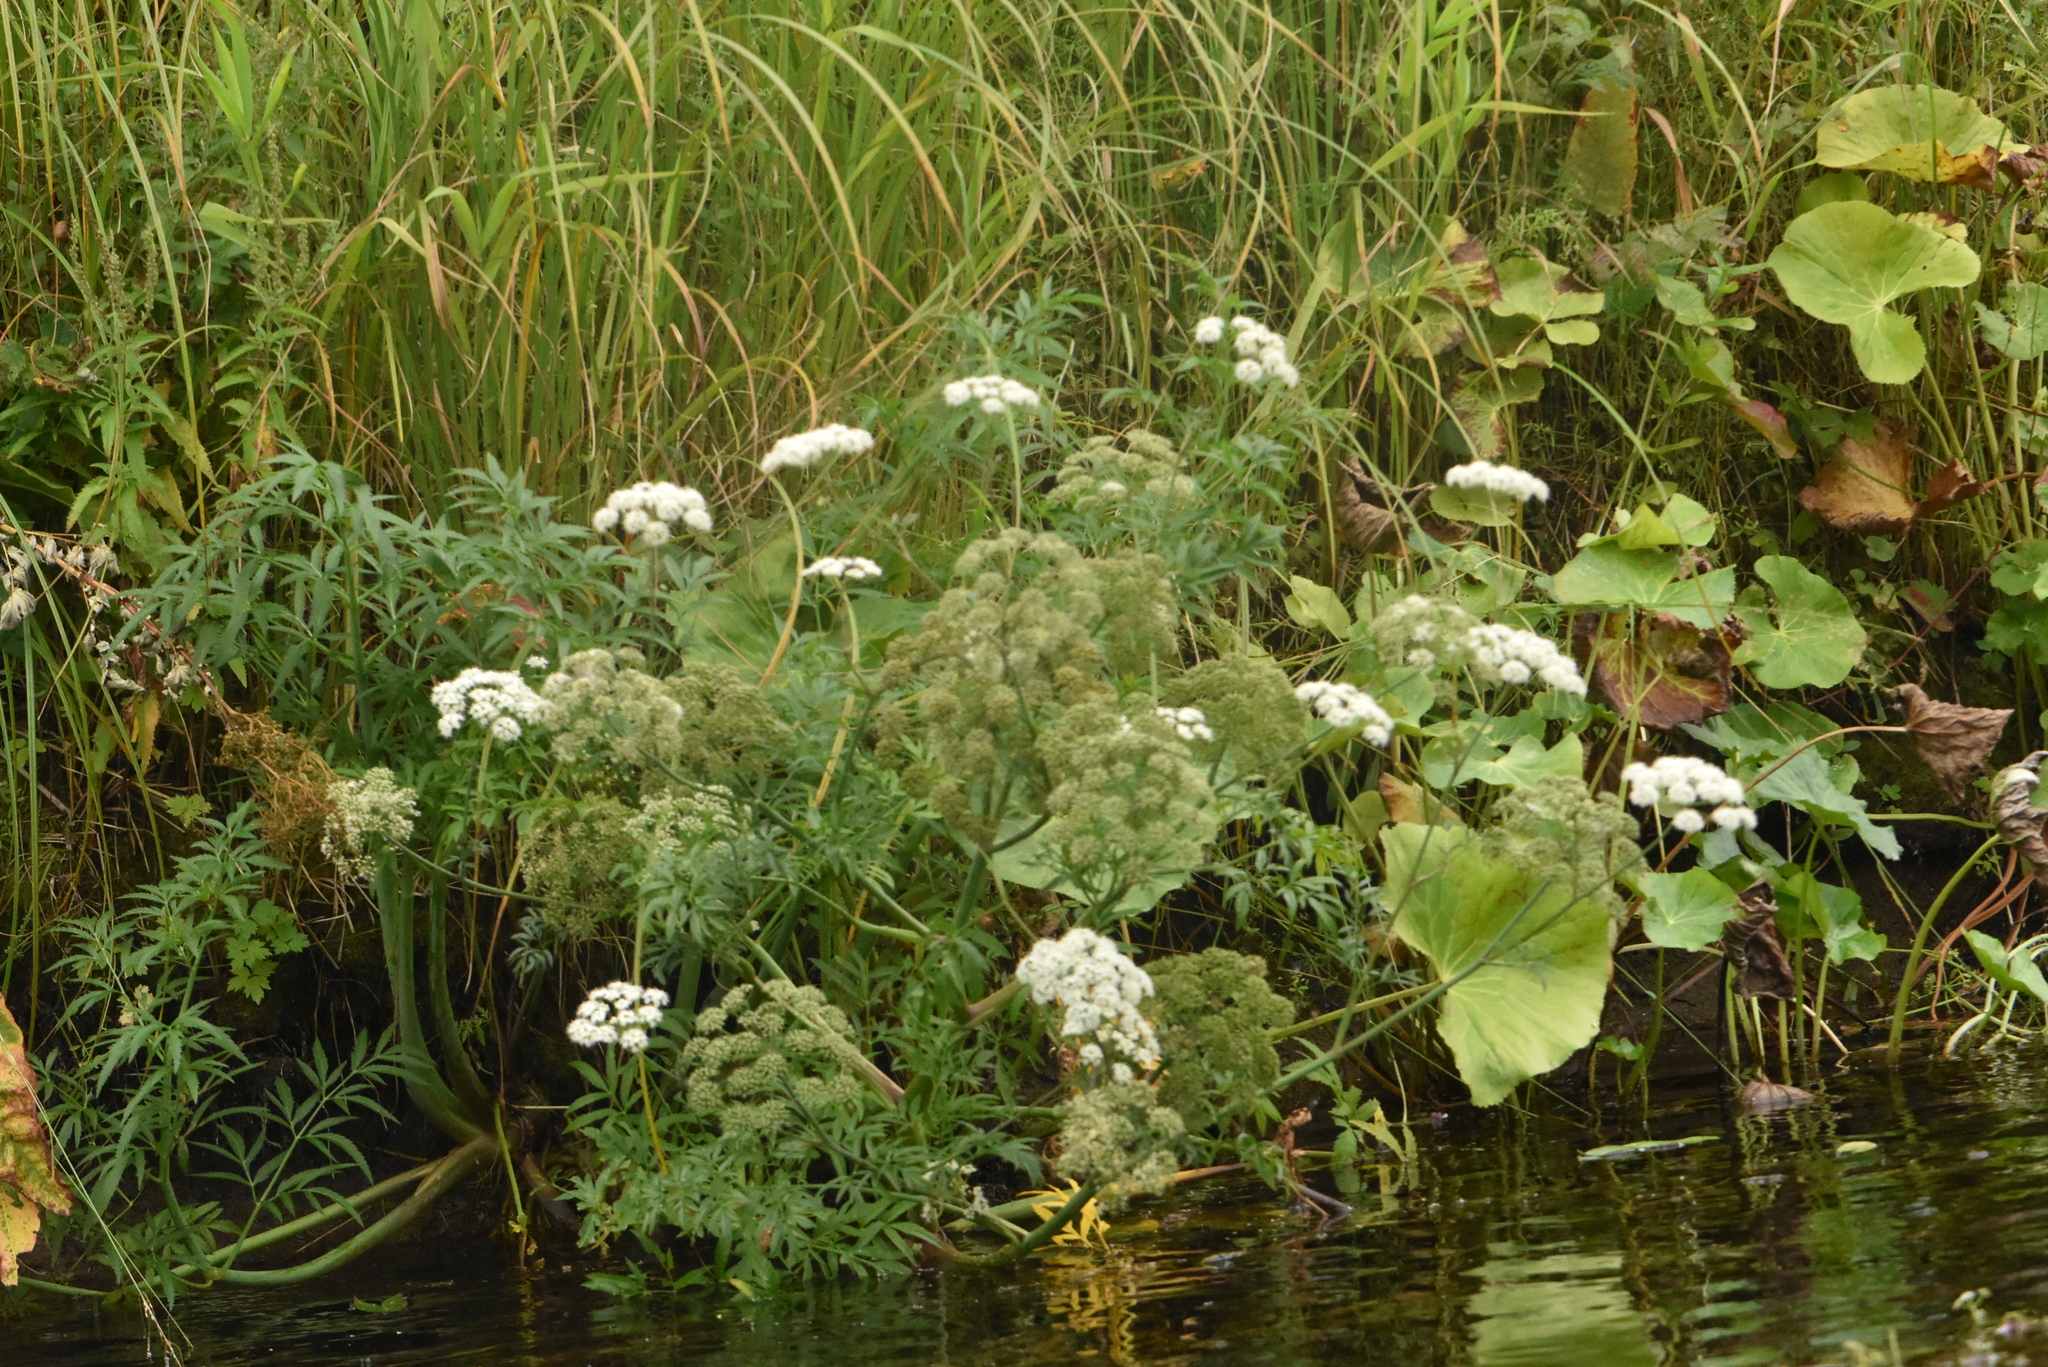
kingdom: Plantae
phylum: Tracheophyta
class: Magnoliopsida
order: Apiales
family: Apiaceae
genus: Cicuta
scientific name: Cicuta virosa
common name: Cowbane
